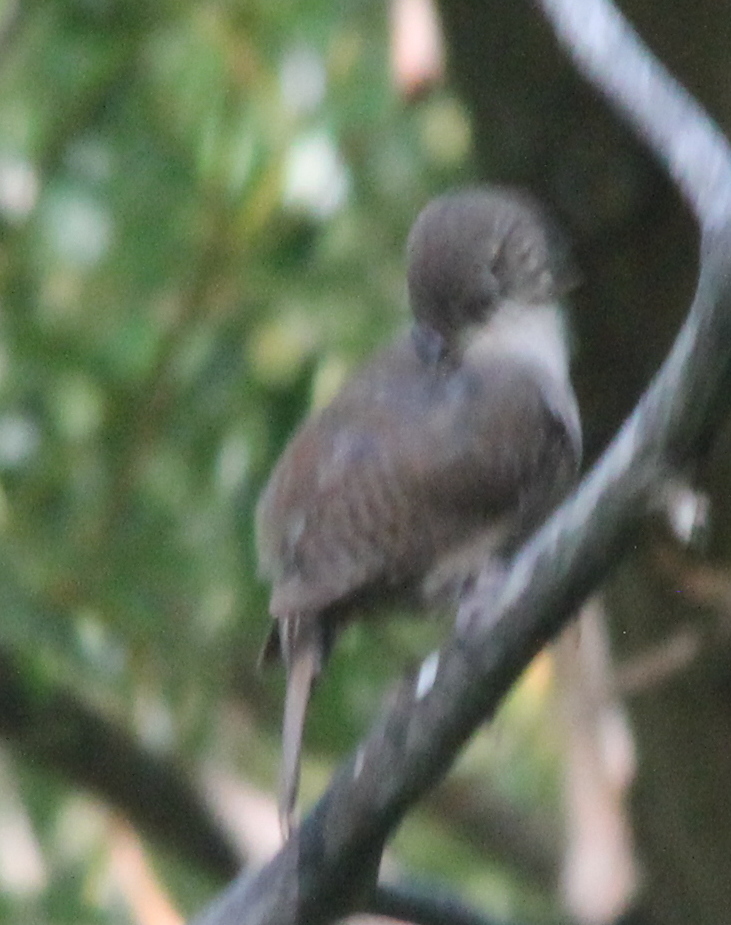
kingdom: Animalia
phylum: Chordata
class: Aves
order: Passeriformes
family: Troglodytidae
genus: Troglodytes
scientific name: Troglodytes aedon
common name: House wren
